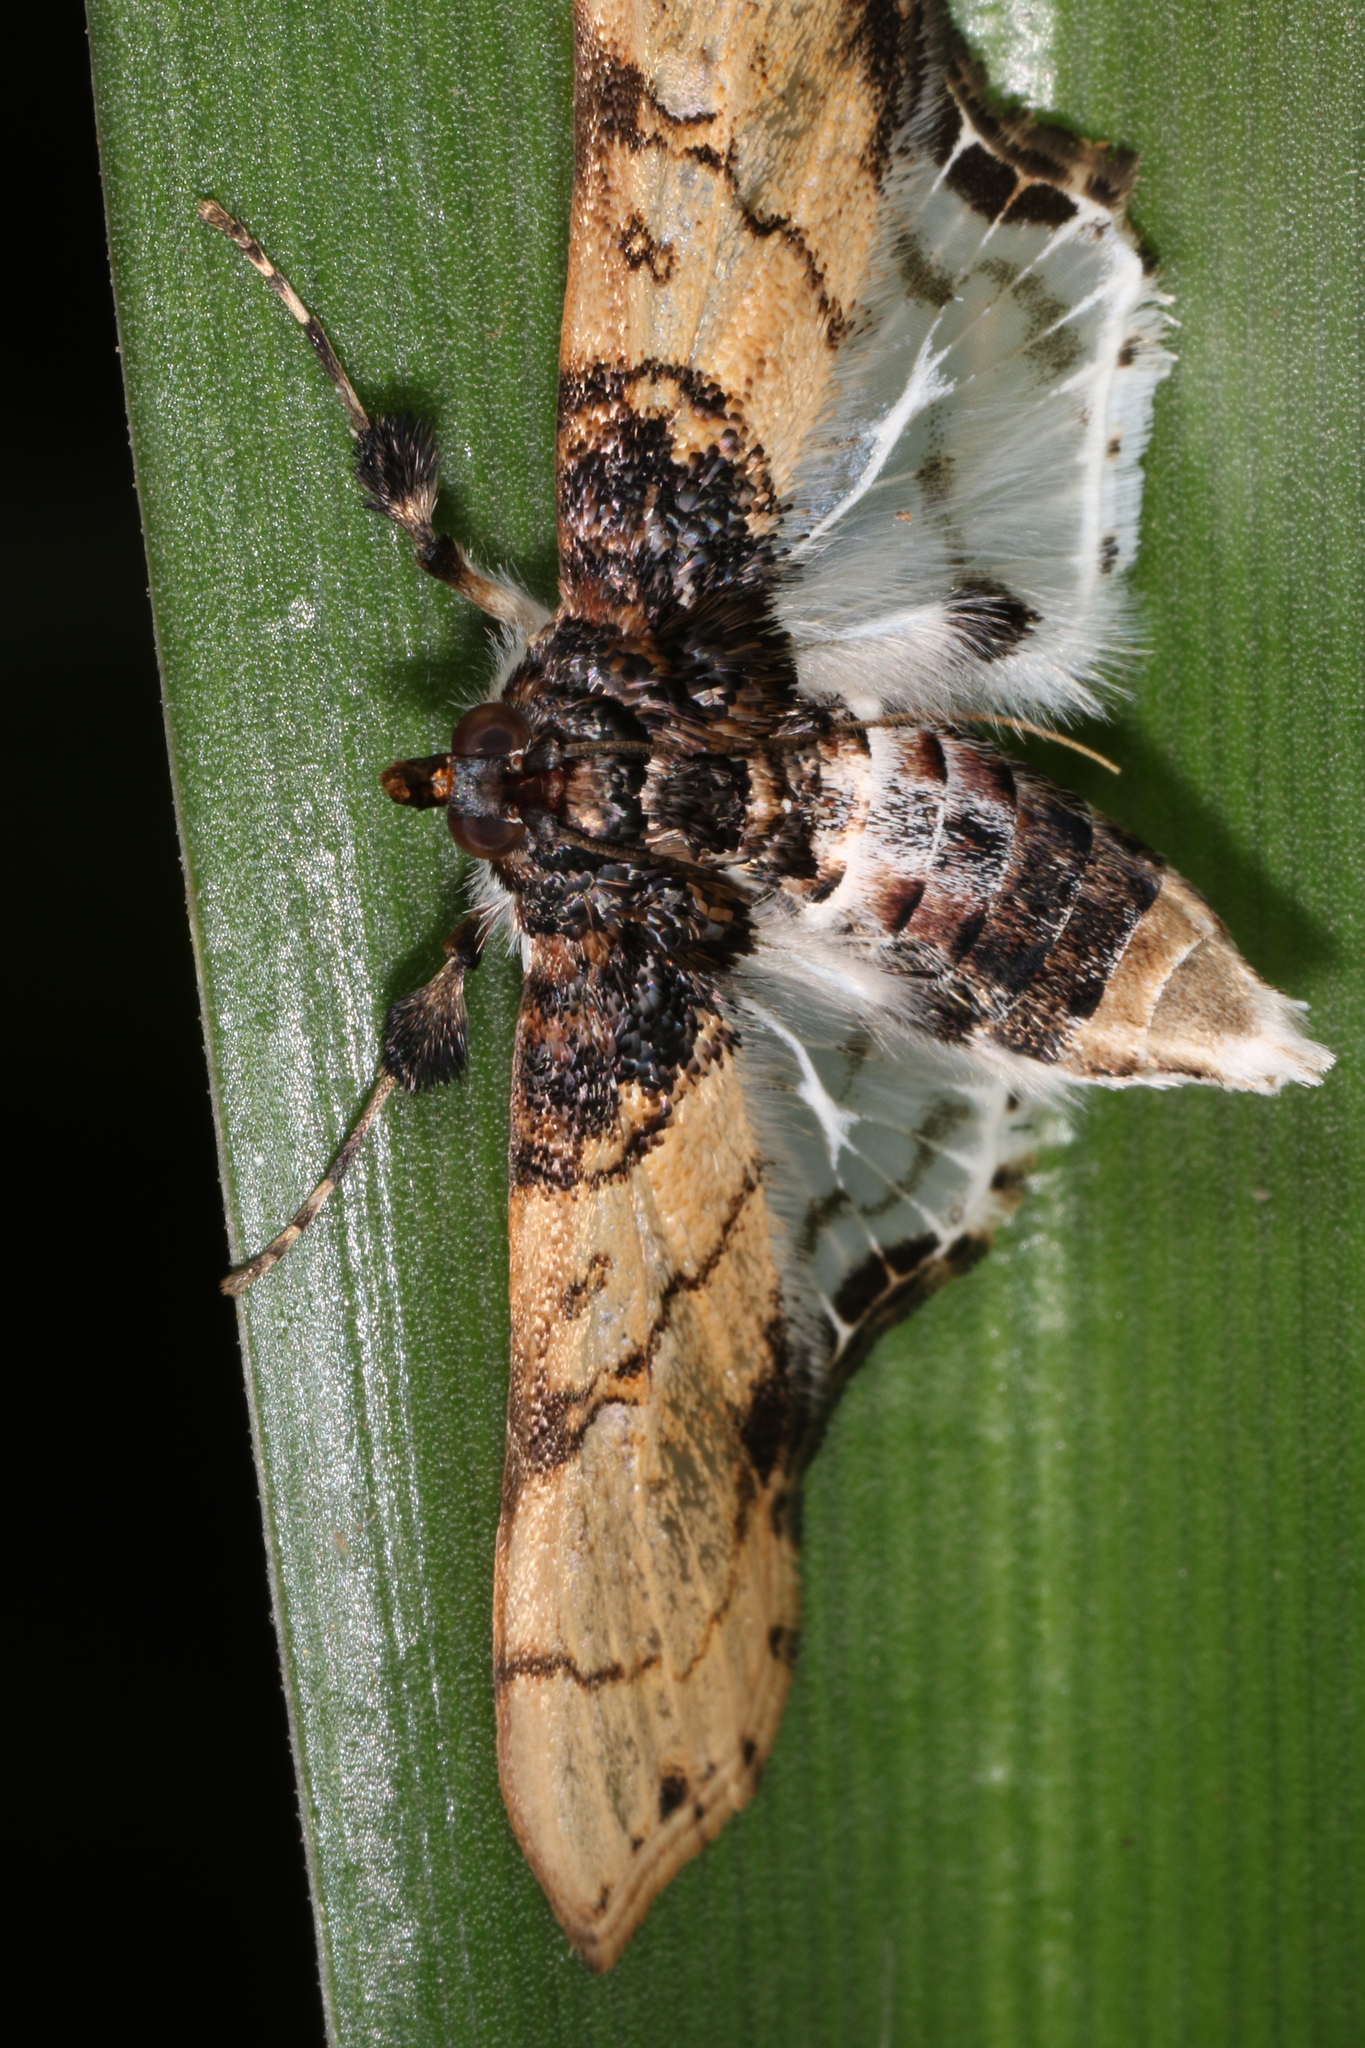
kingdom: Animalia
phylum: Arthropoda
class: Insecta
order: Lepidoptera
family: Crambidae
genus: Azochis
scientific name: Azochis
